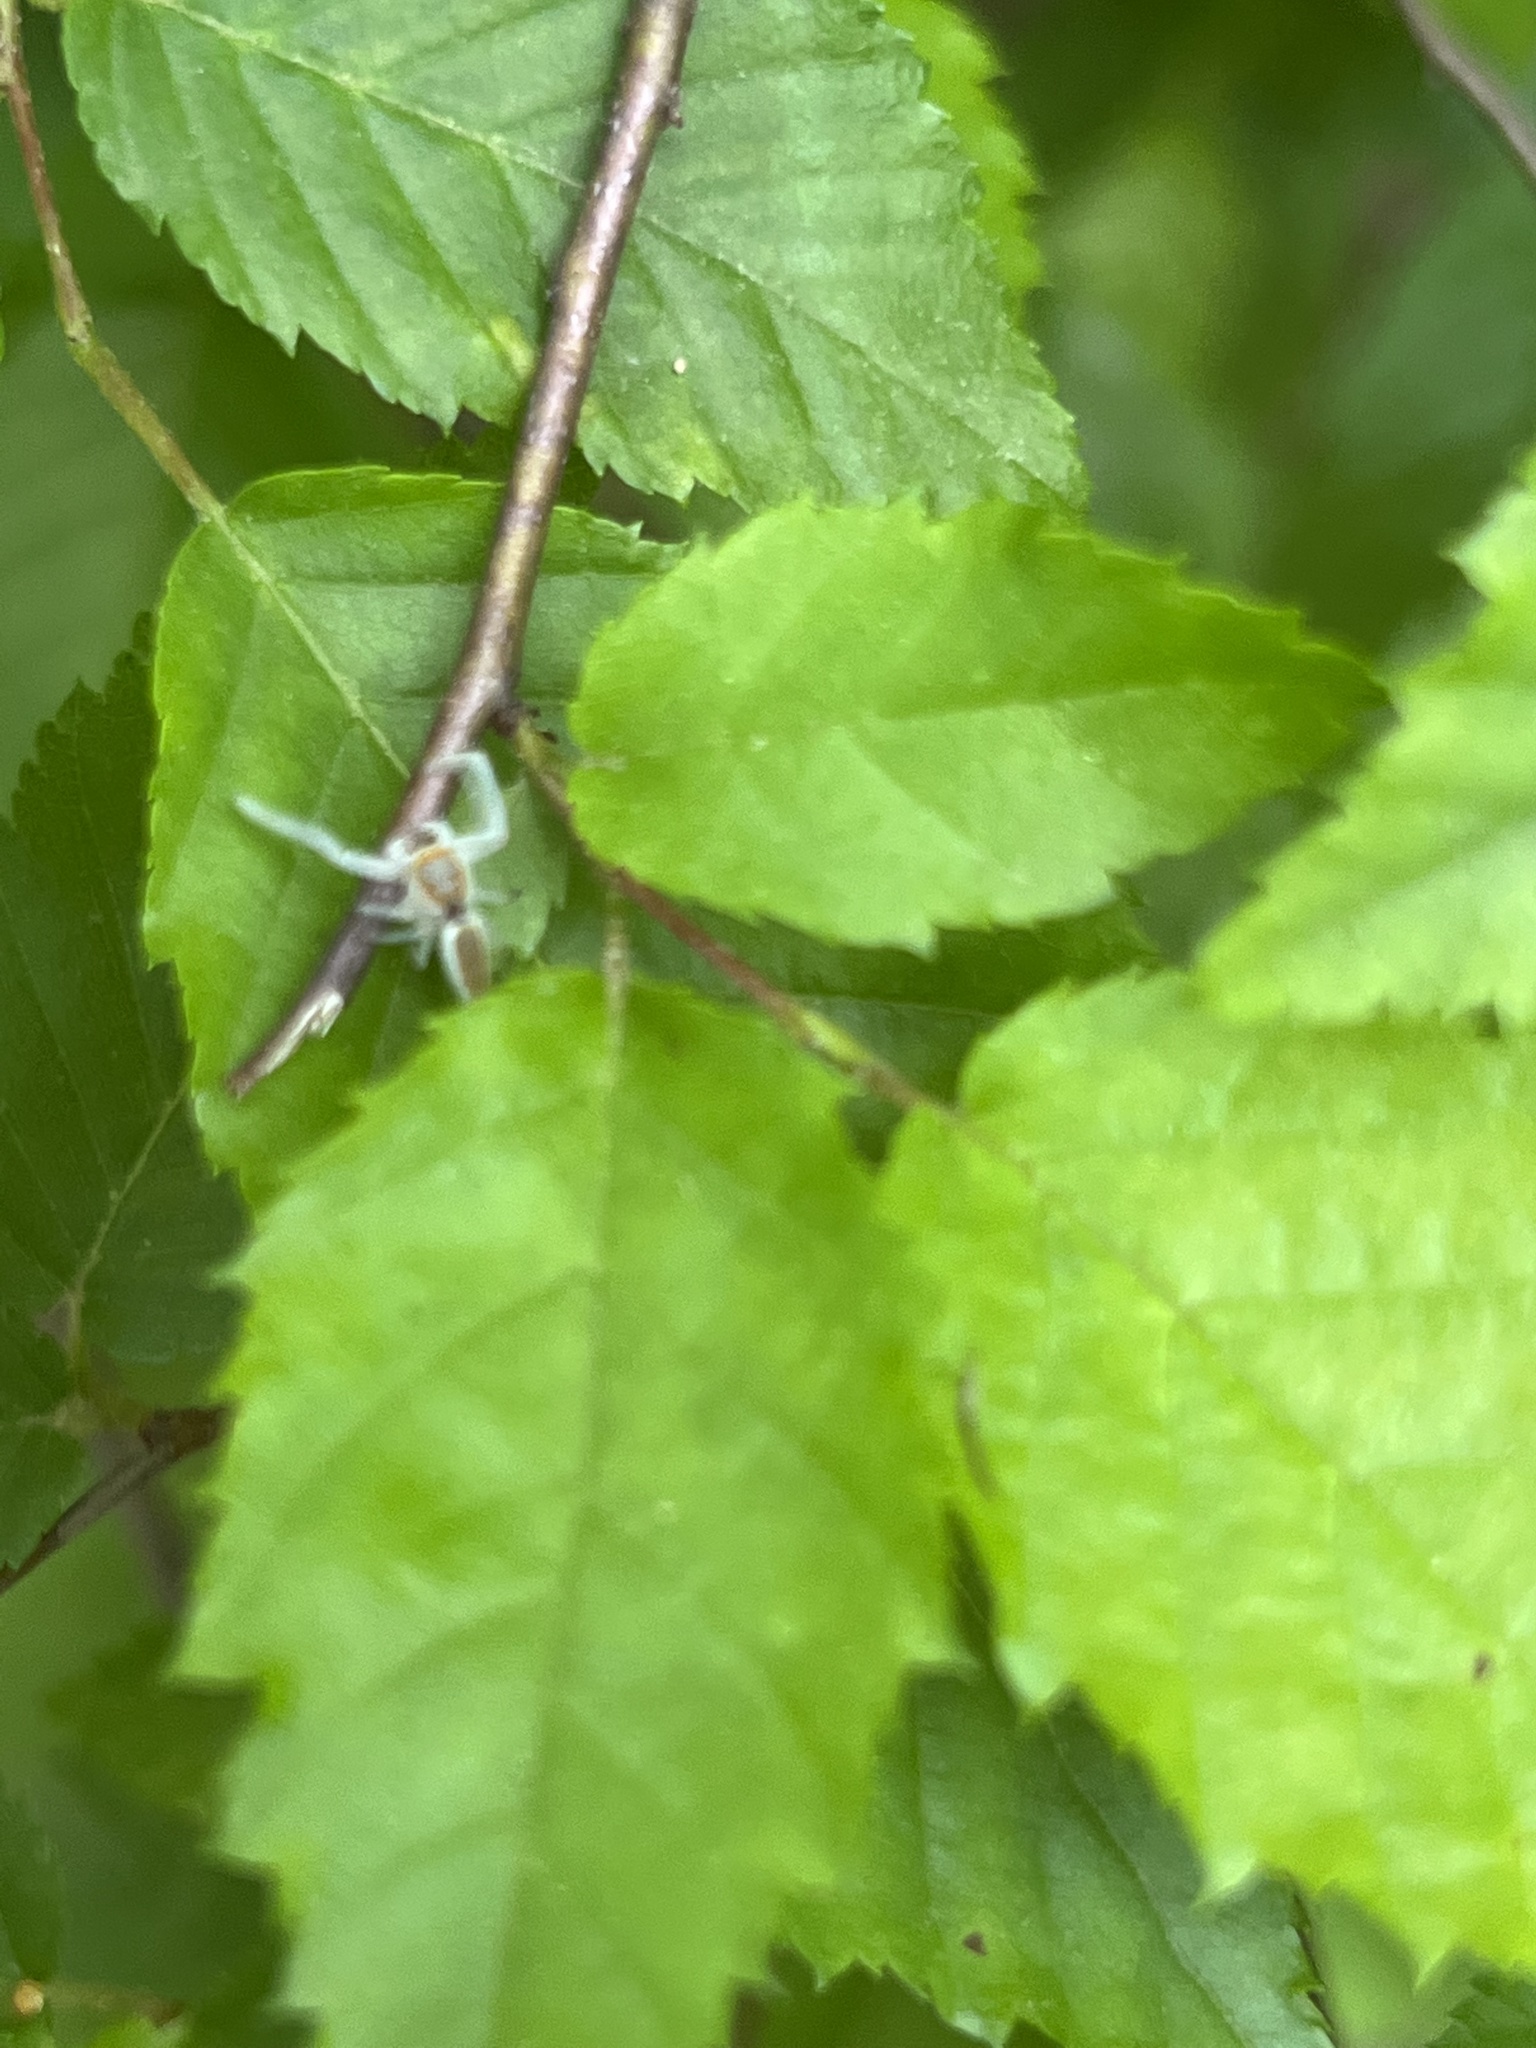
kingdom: Animalia
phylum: Arthropoda
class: Arachnida
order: Araneae
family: Salticidae
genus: Hentzia
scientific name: Hentzia mitrata
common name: White-jawed jumping spider
